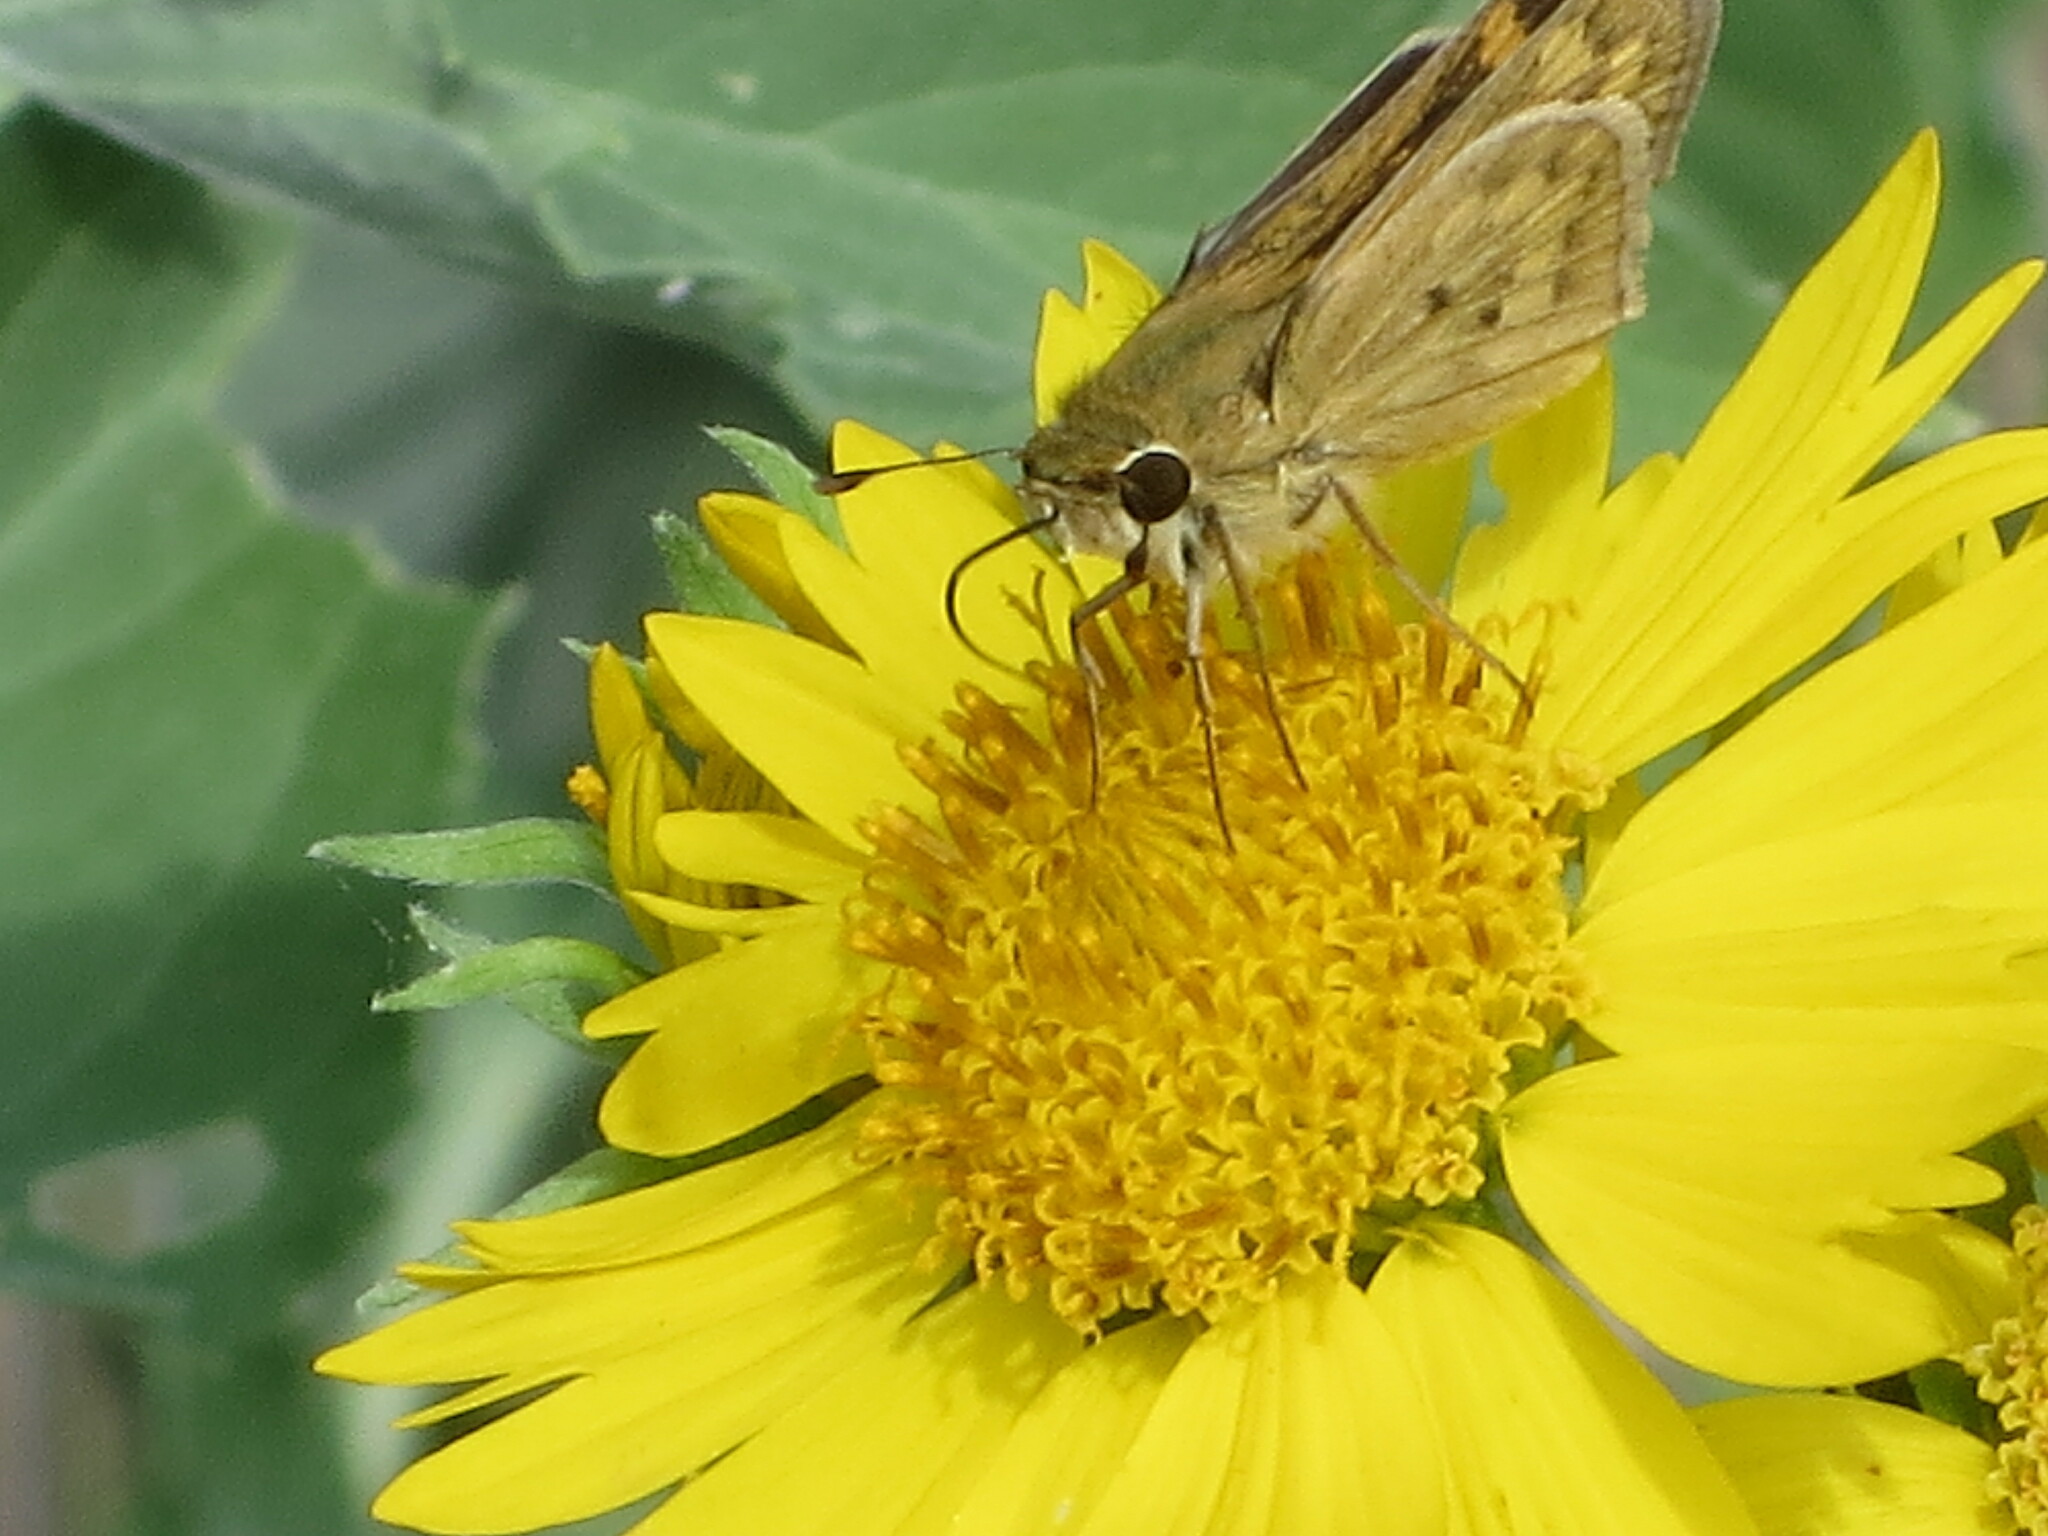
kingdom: Animalia
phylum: Arthropoda
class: Insecta
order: Lepidoptera
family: Hesperiidae
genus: Hylephila
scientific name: Hylephila phyleus
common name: Fiery skipper
